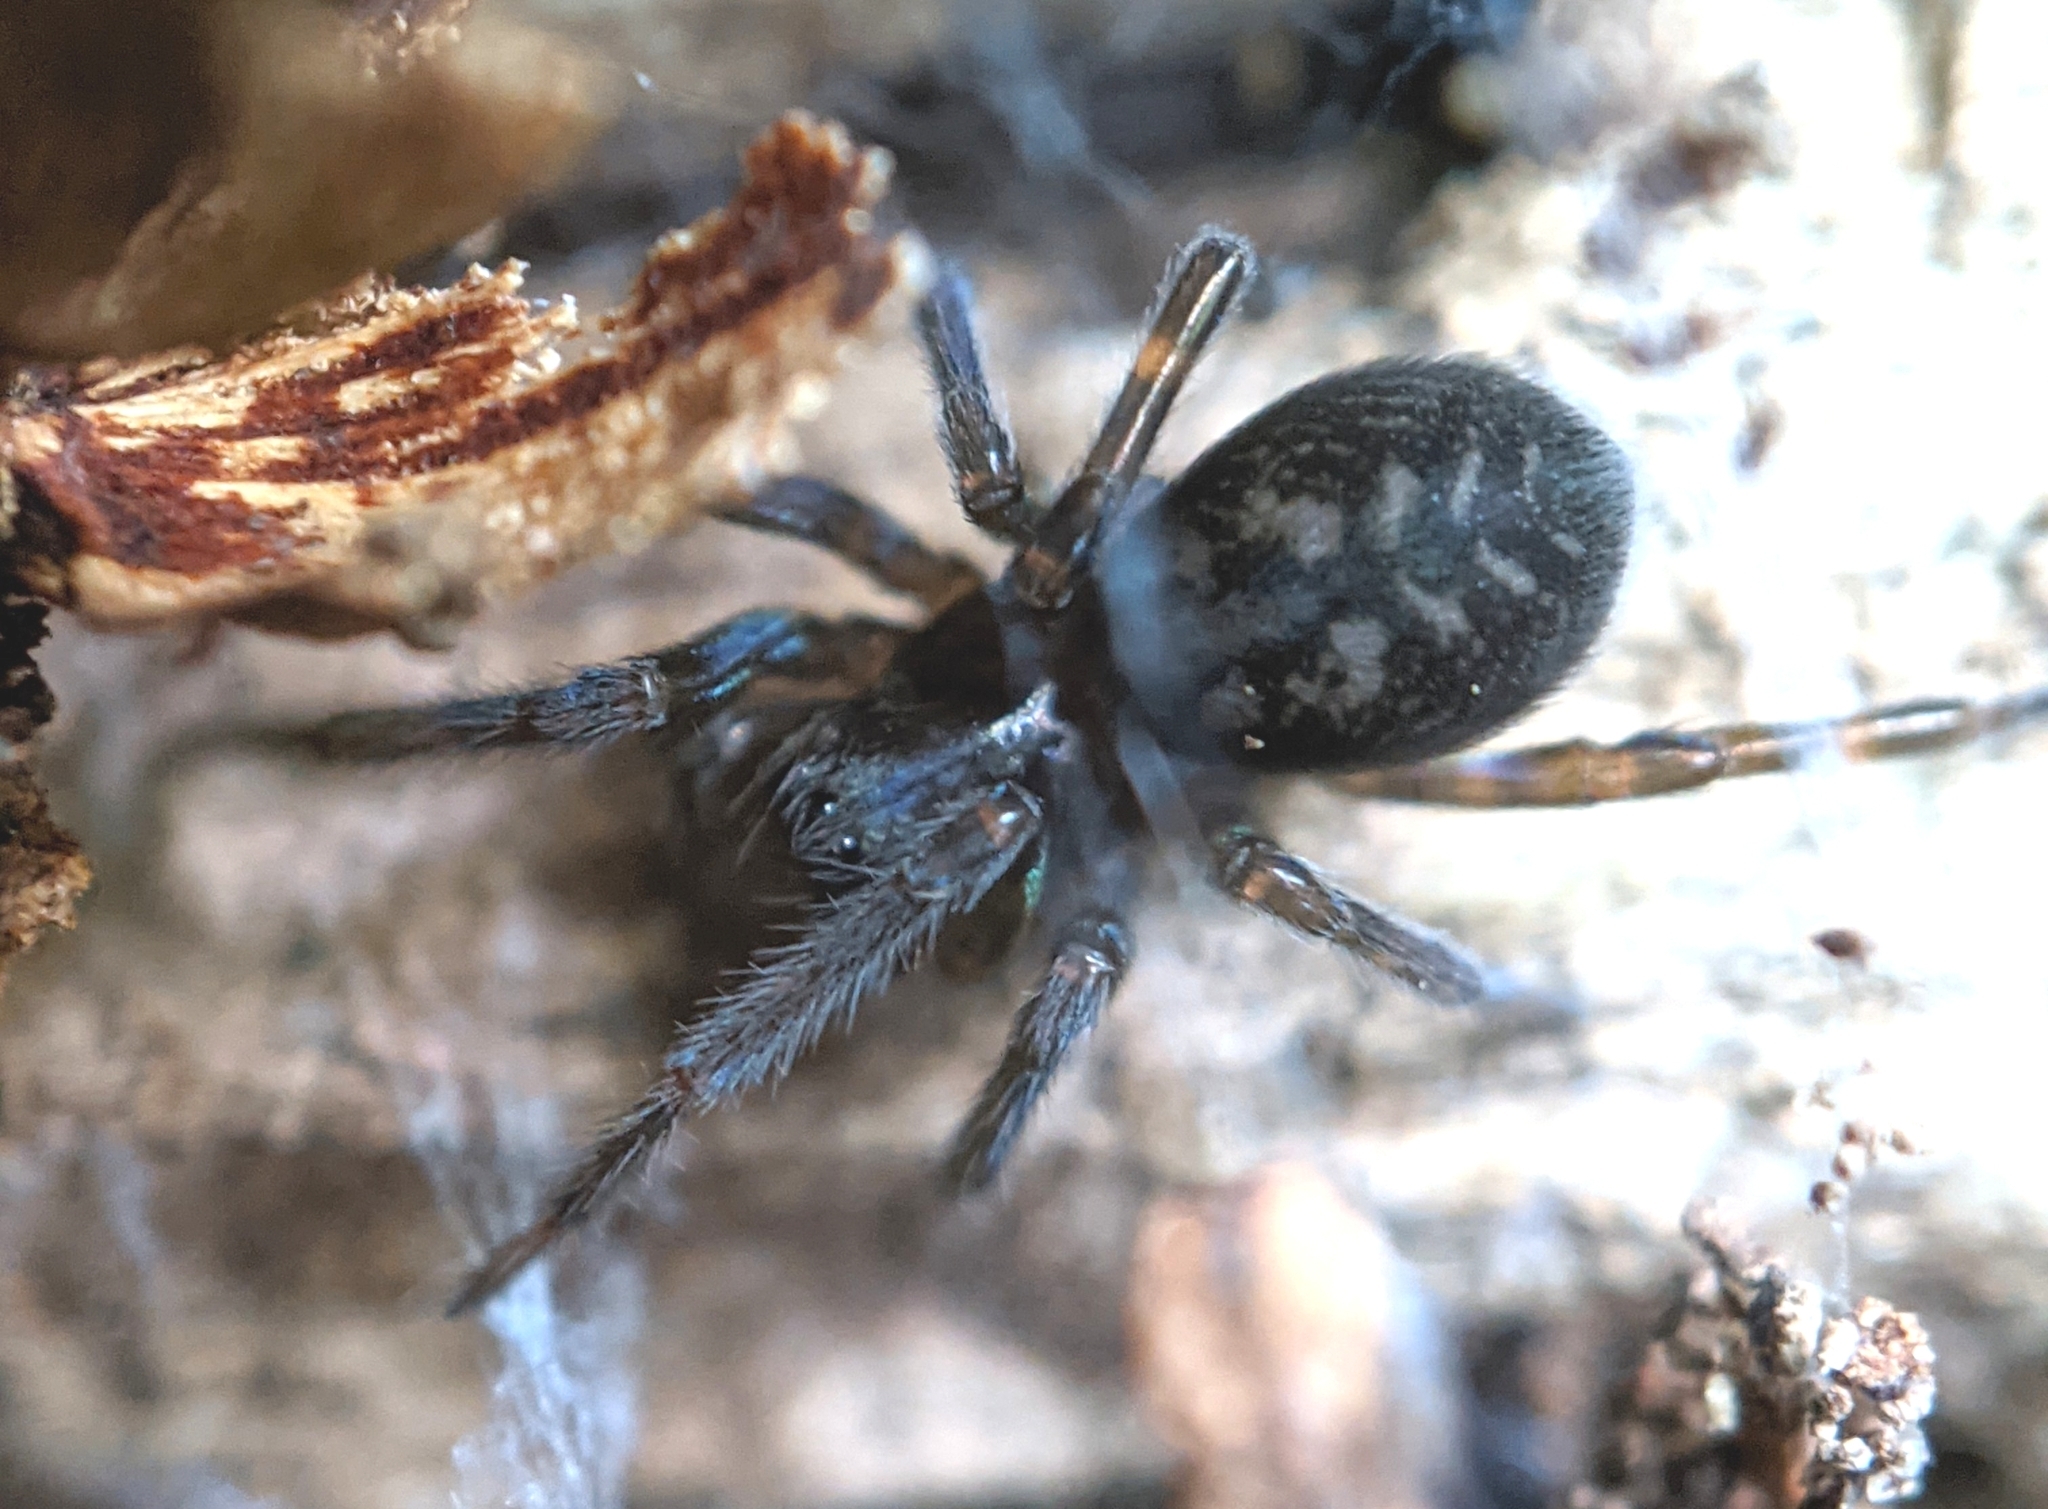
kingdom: Animalia
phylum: Arthropoda
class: Arachnida
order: Araneae
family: Amaurobiidae
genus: Amaurobius
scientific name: Amaurobius ferox
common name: Black laceweaver
